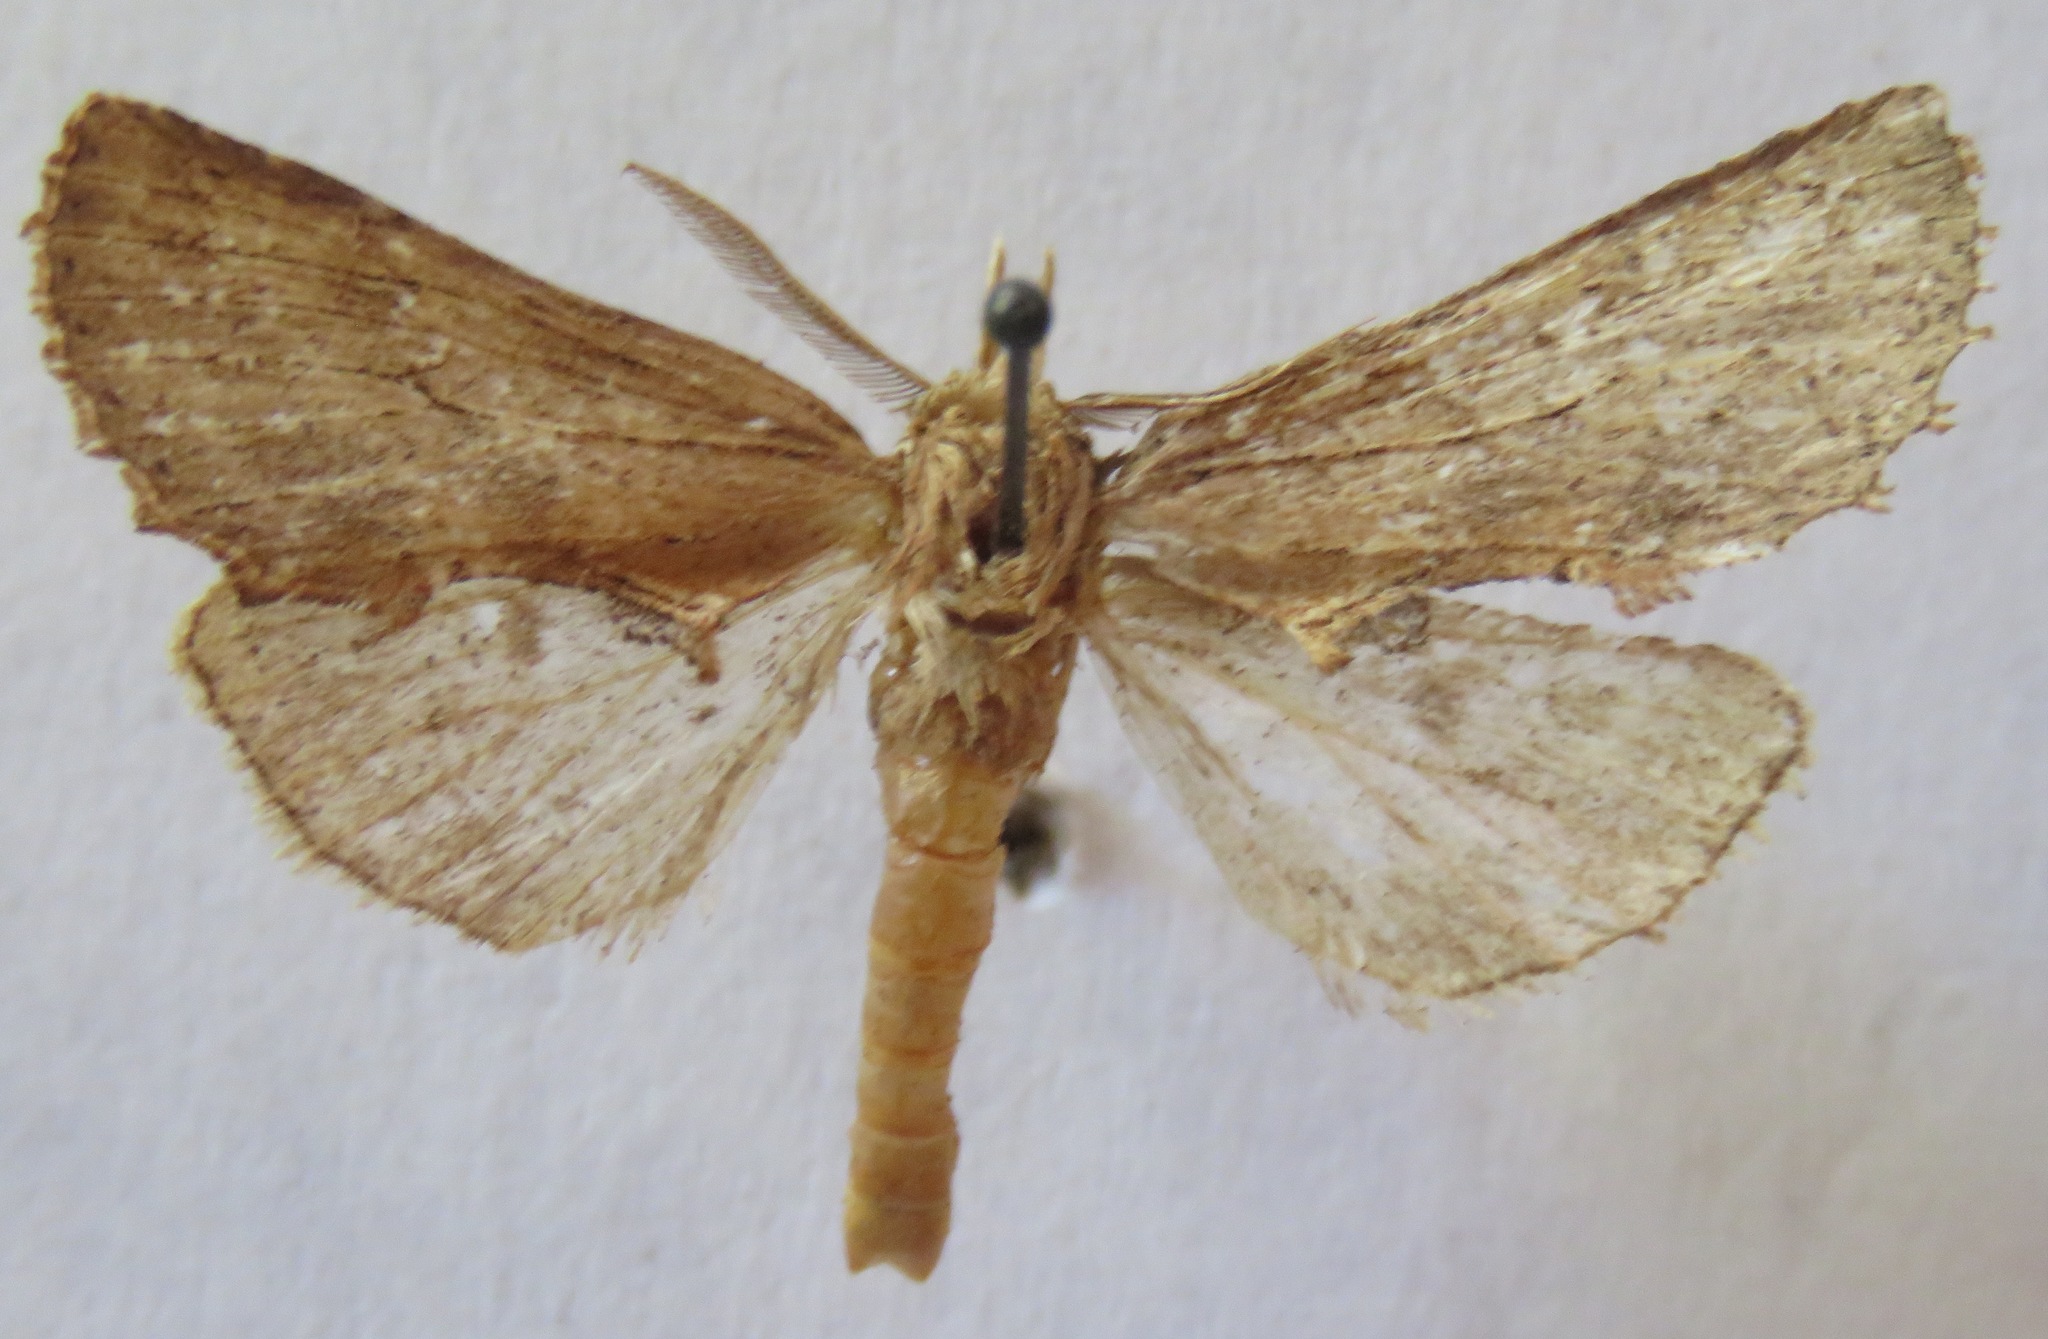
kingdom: Animalia
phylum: Arthropoda
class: Insecta
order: Lepidoptera
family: Notodontidae
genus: Pterostoma
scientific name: Pterostoma palpina
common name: Pale prominent
